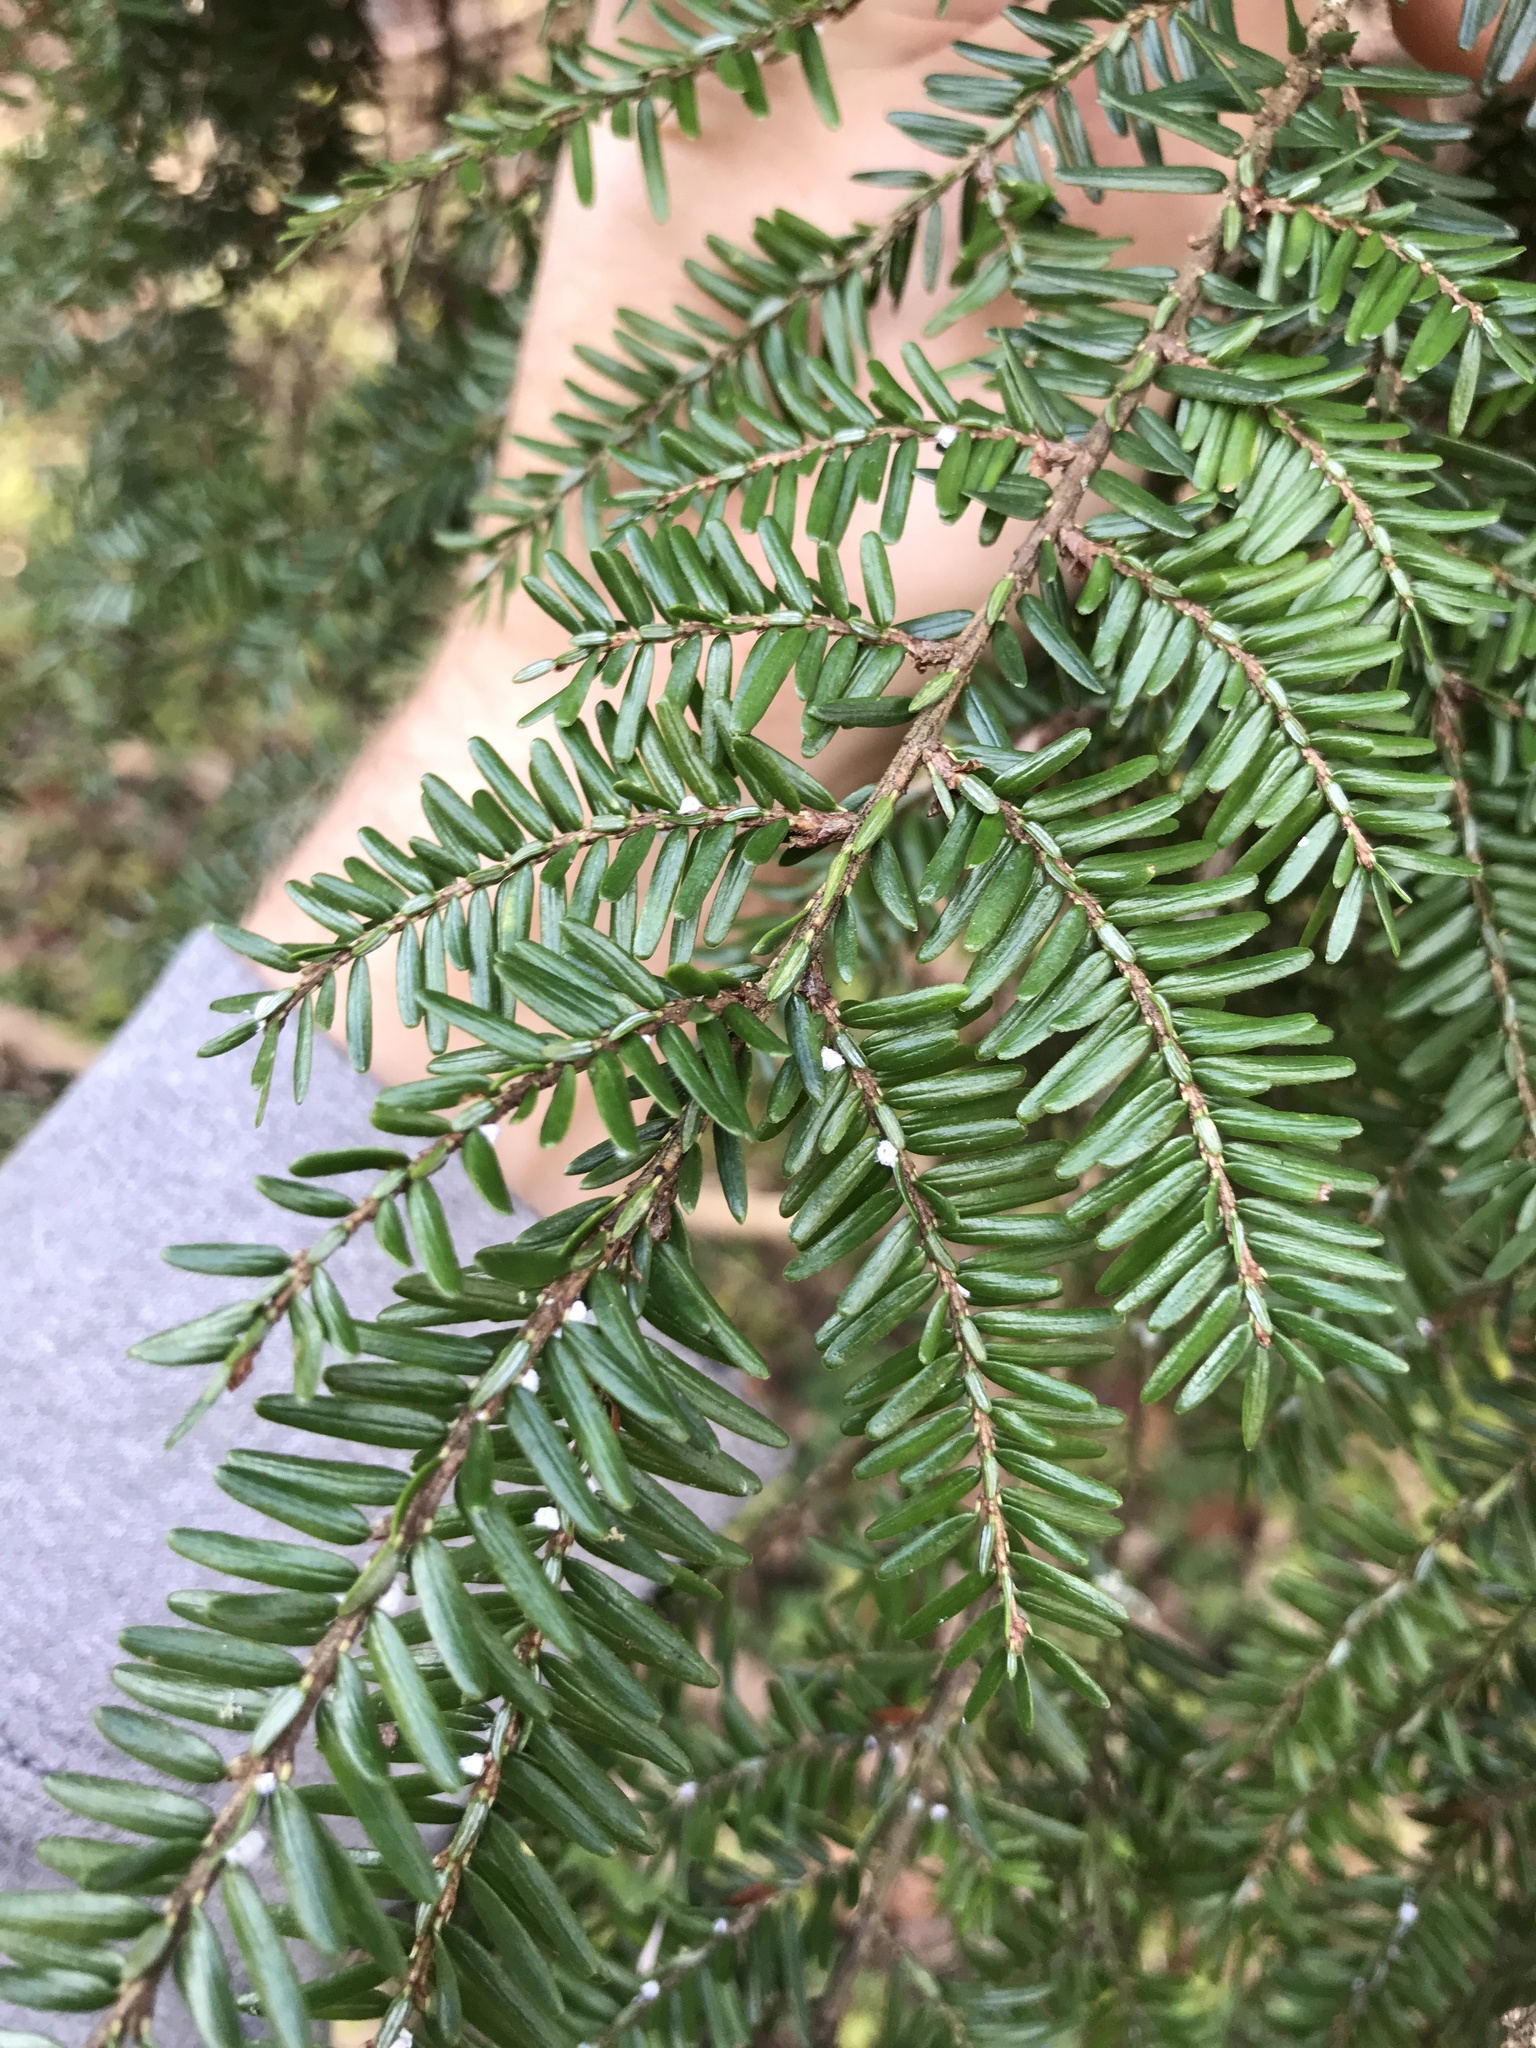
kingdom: Animalia
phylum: Arthropoda
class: Insecta
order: Hemiptera
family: Adelgidae
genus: Adelges
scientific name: Adelges tsugae
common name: Hemlock woolly adelgid
